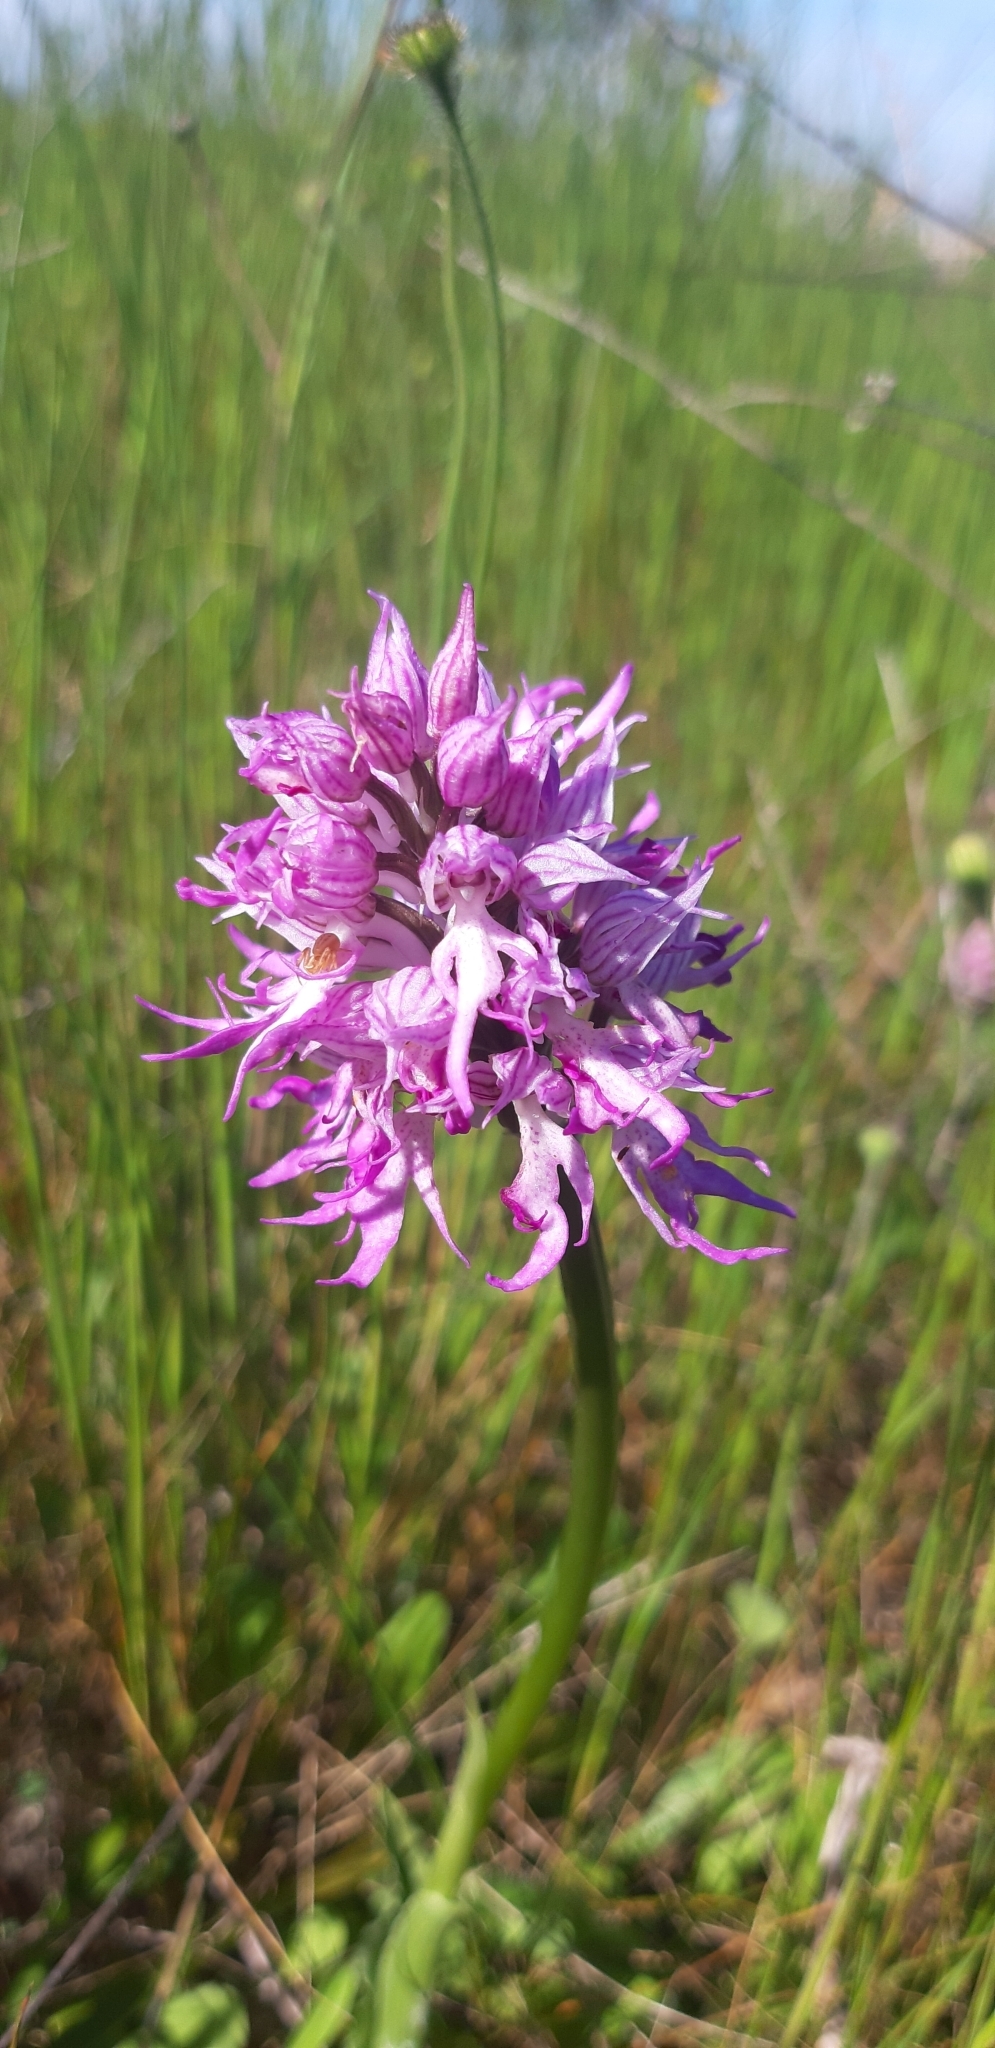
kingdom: Plantae
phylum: Tracheophyta
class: Liliopsida
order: Asparagales
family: Orchidaceae
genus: Orchis
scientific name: Orchis italica
